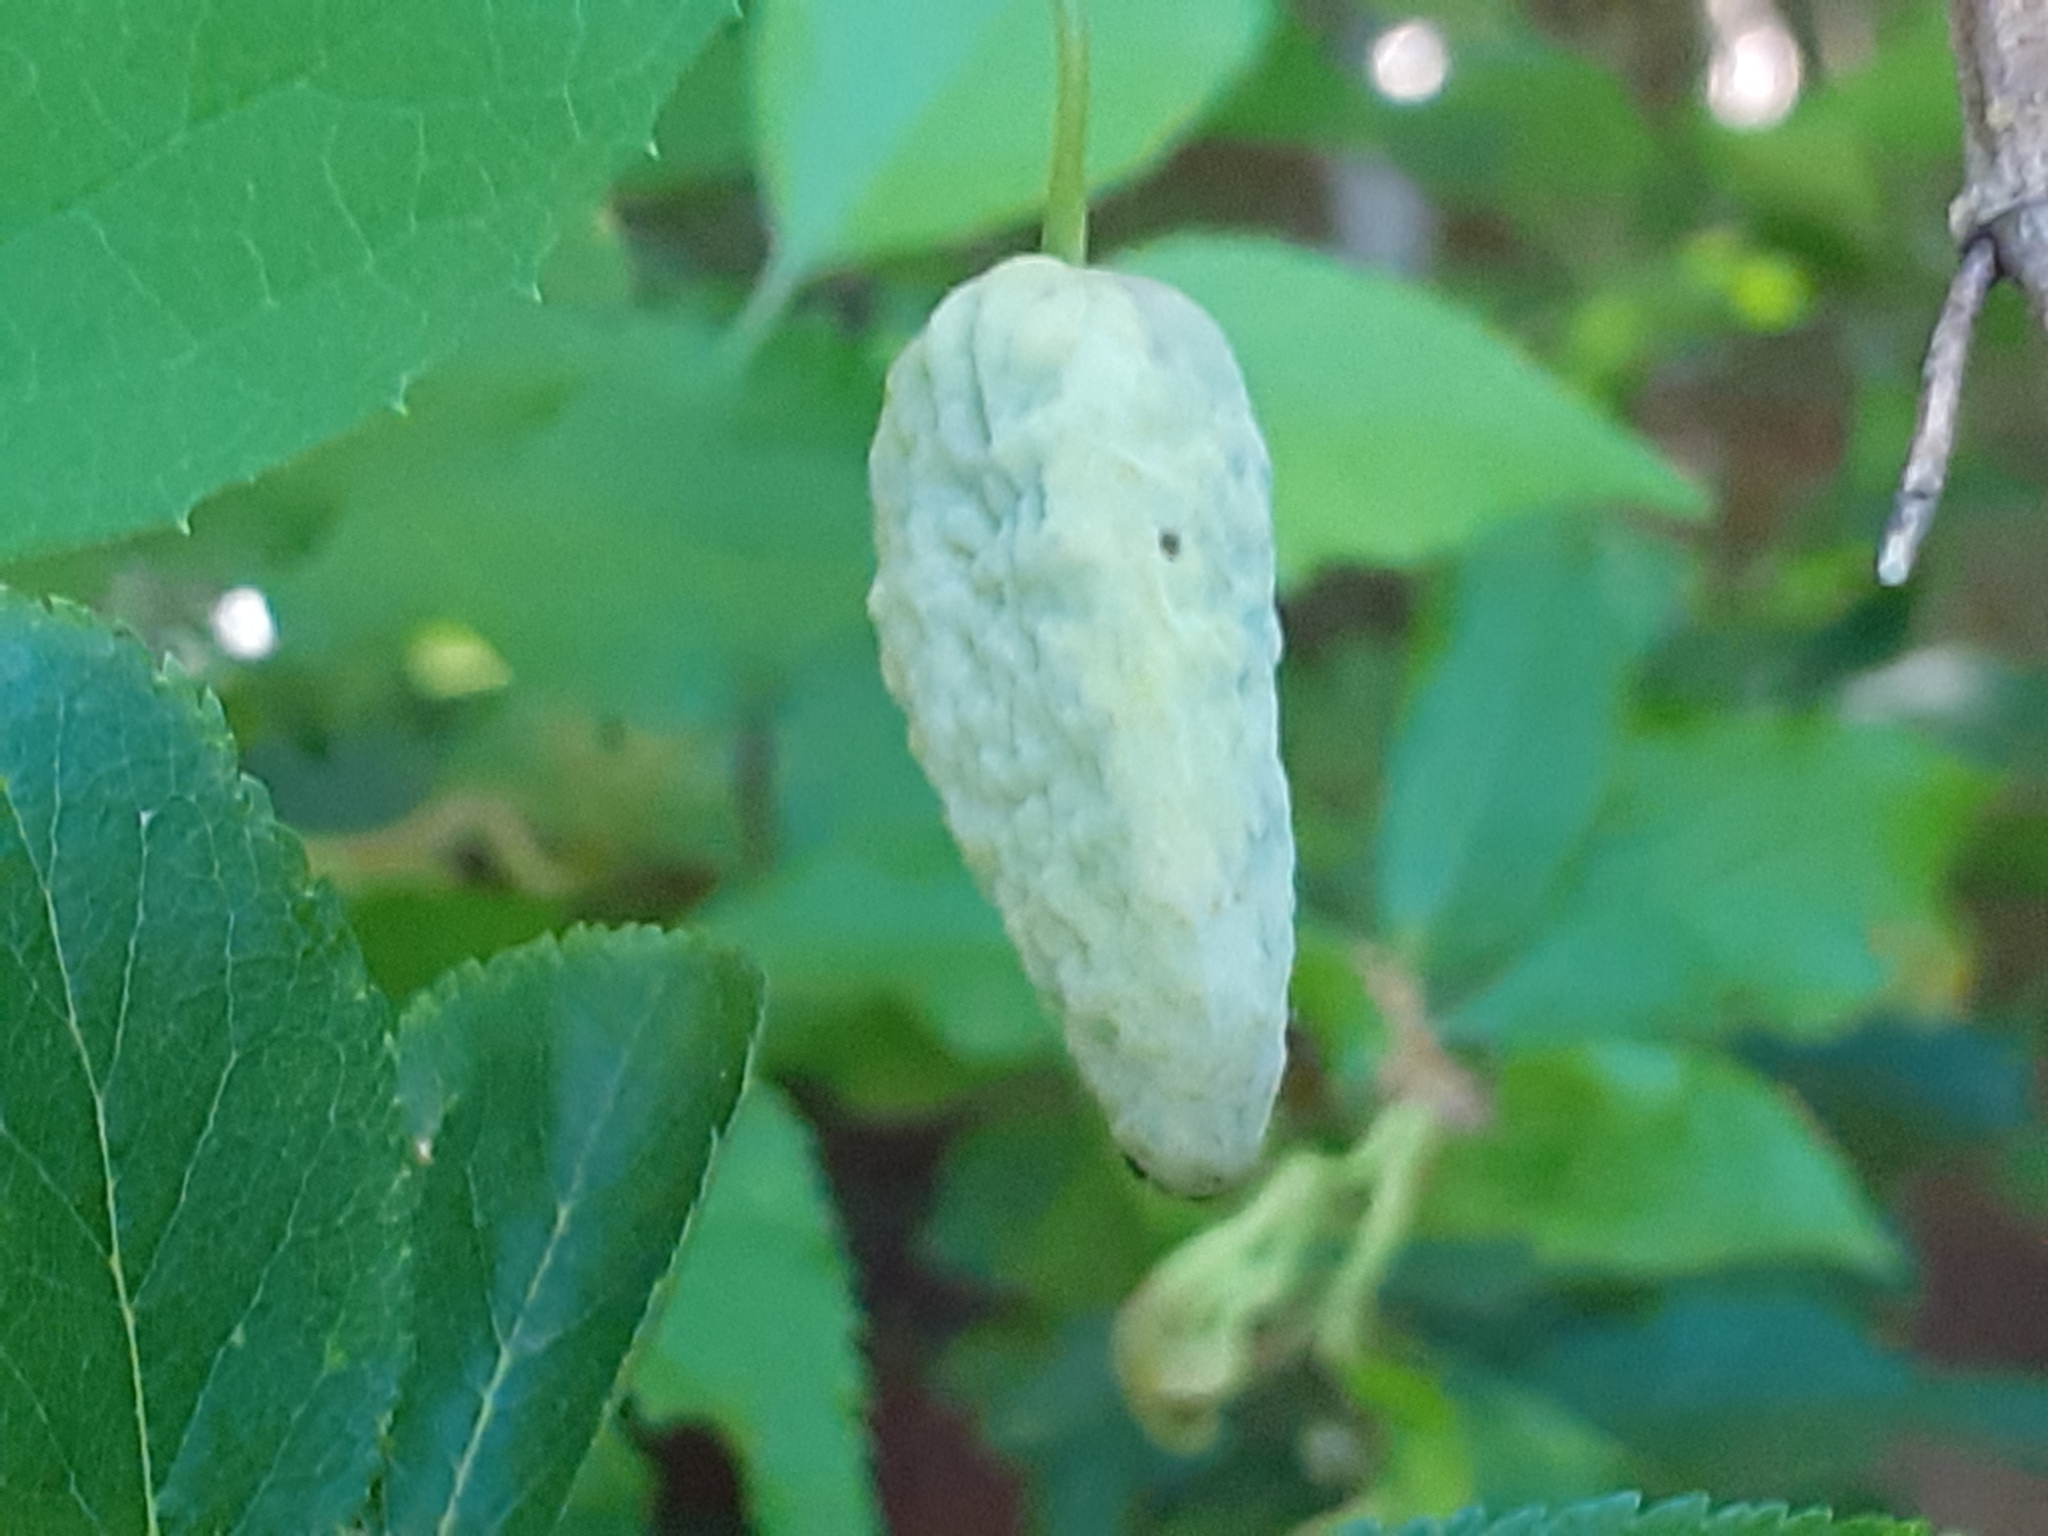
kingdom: Fungi
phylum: Ascomycota
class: Taphrinomycetes
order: Taphrinales
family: Taphrinaceae
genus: Taphrina
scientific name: Taphrina pruni
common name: Pocket plum
